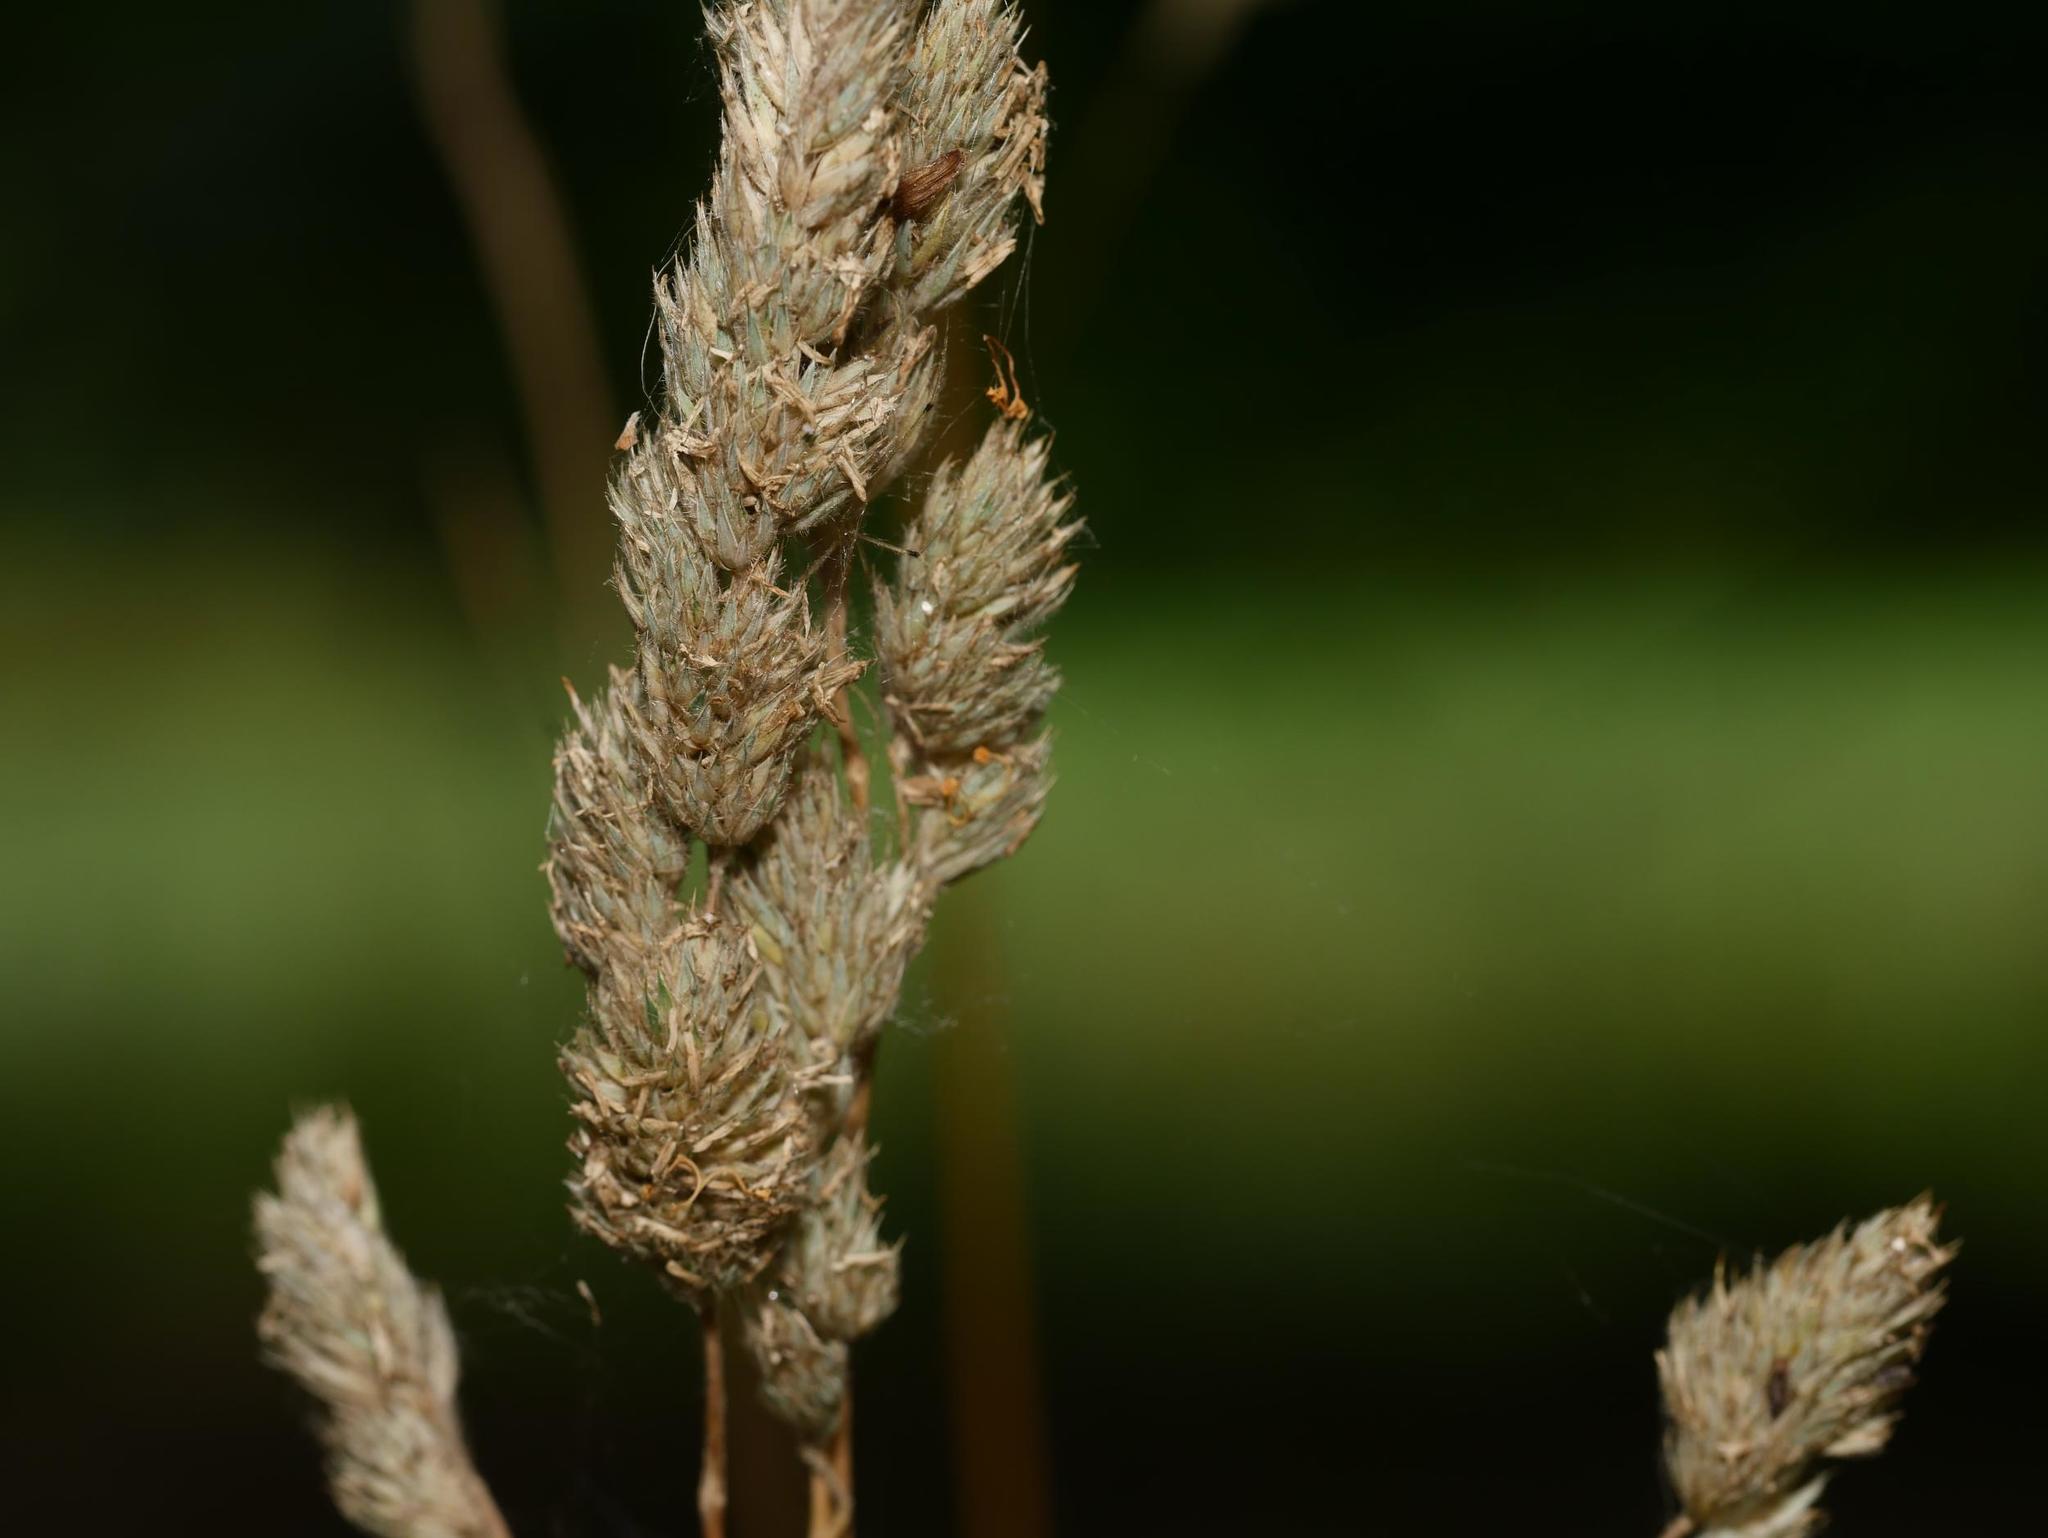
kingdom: Plantae
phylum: Tracheophyta
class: Liliopsida
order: Poales
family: Poaceae
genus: Dactylis
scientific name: Dactylis glomerata
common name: Orchardgrass
